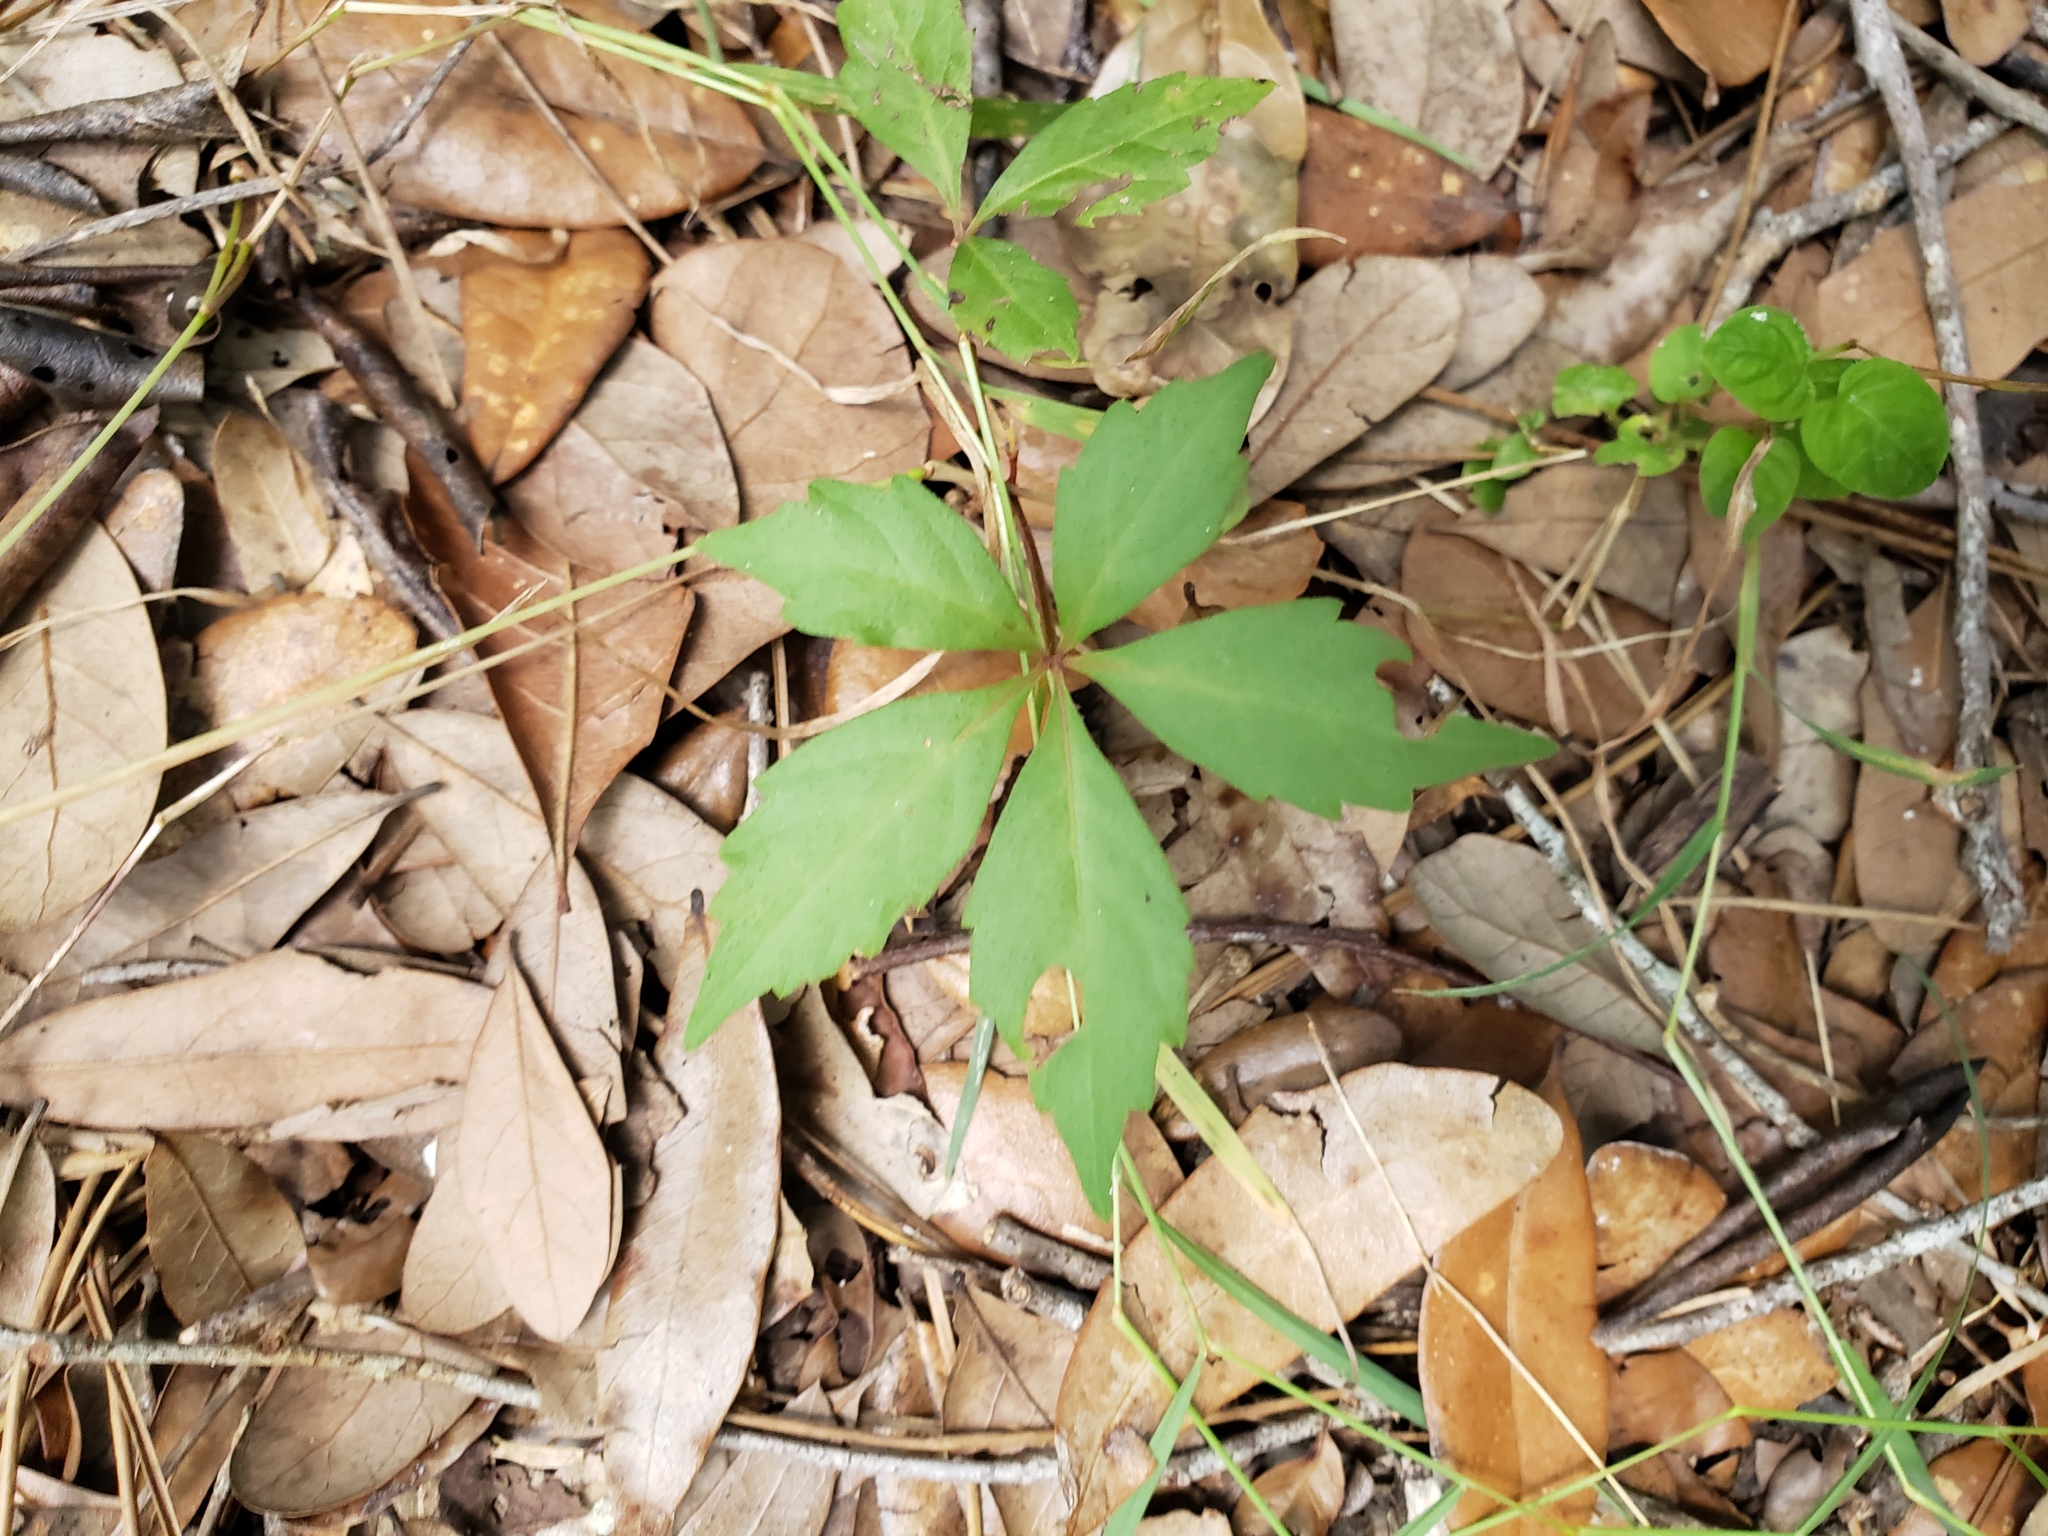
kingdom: Plantae
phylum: Tracheophyta
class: Magnoliopsida
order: Vitales
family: Vitaceae
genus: Parthenocissus
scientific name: Parthenocissus quinquefolia
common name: Virginia-creeper
